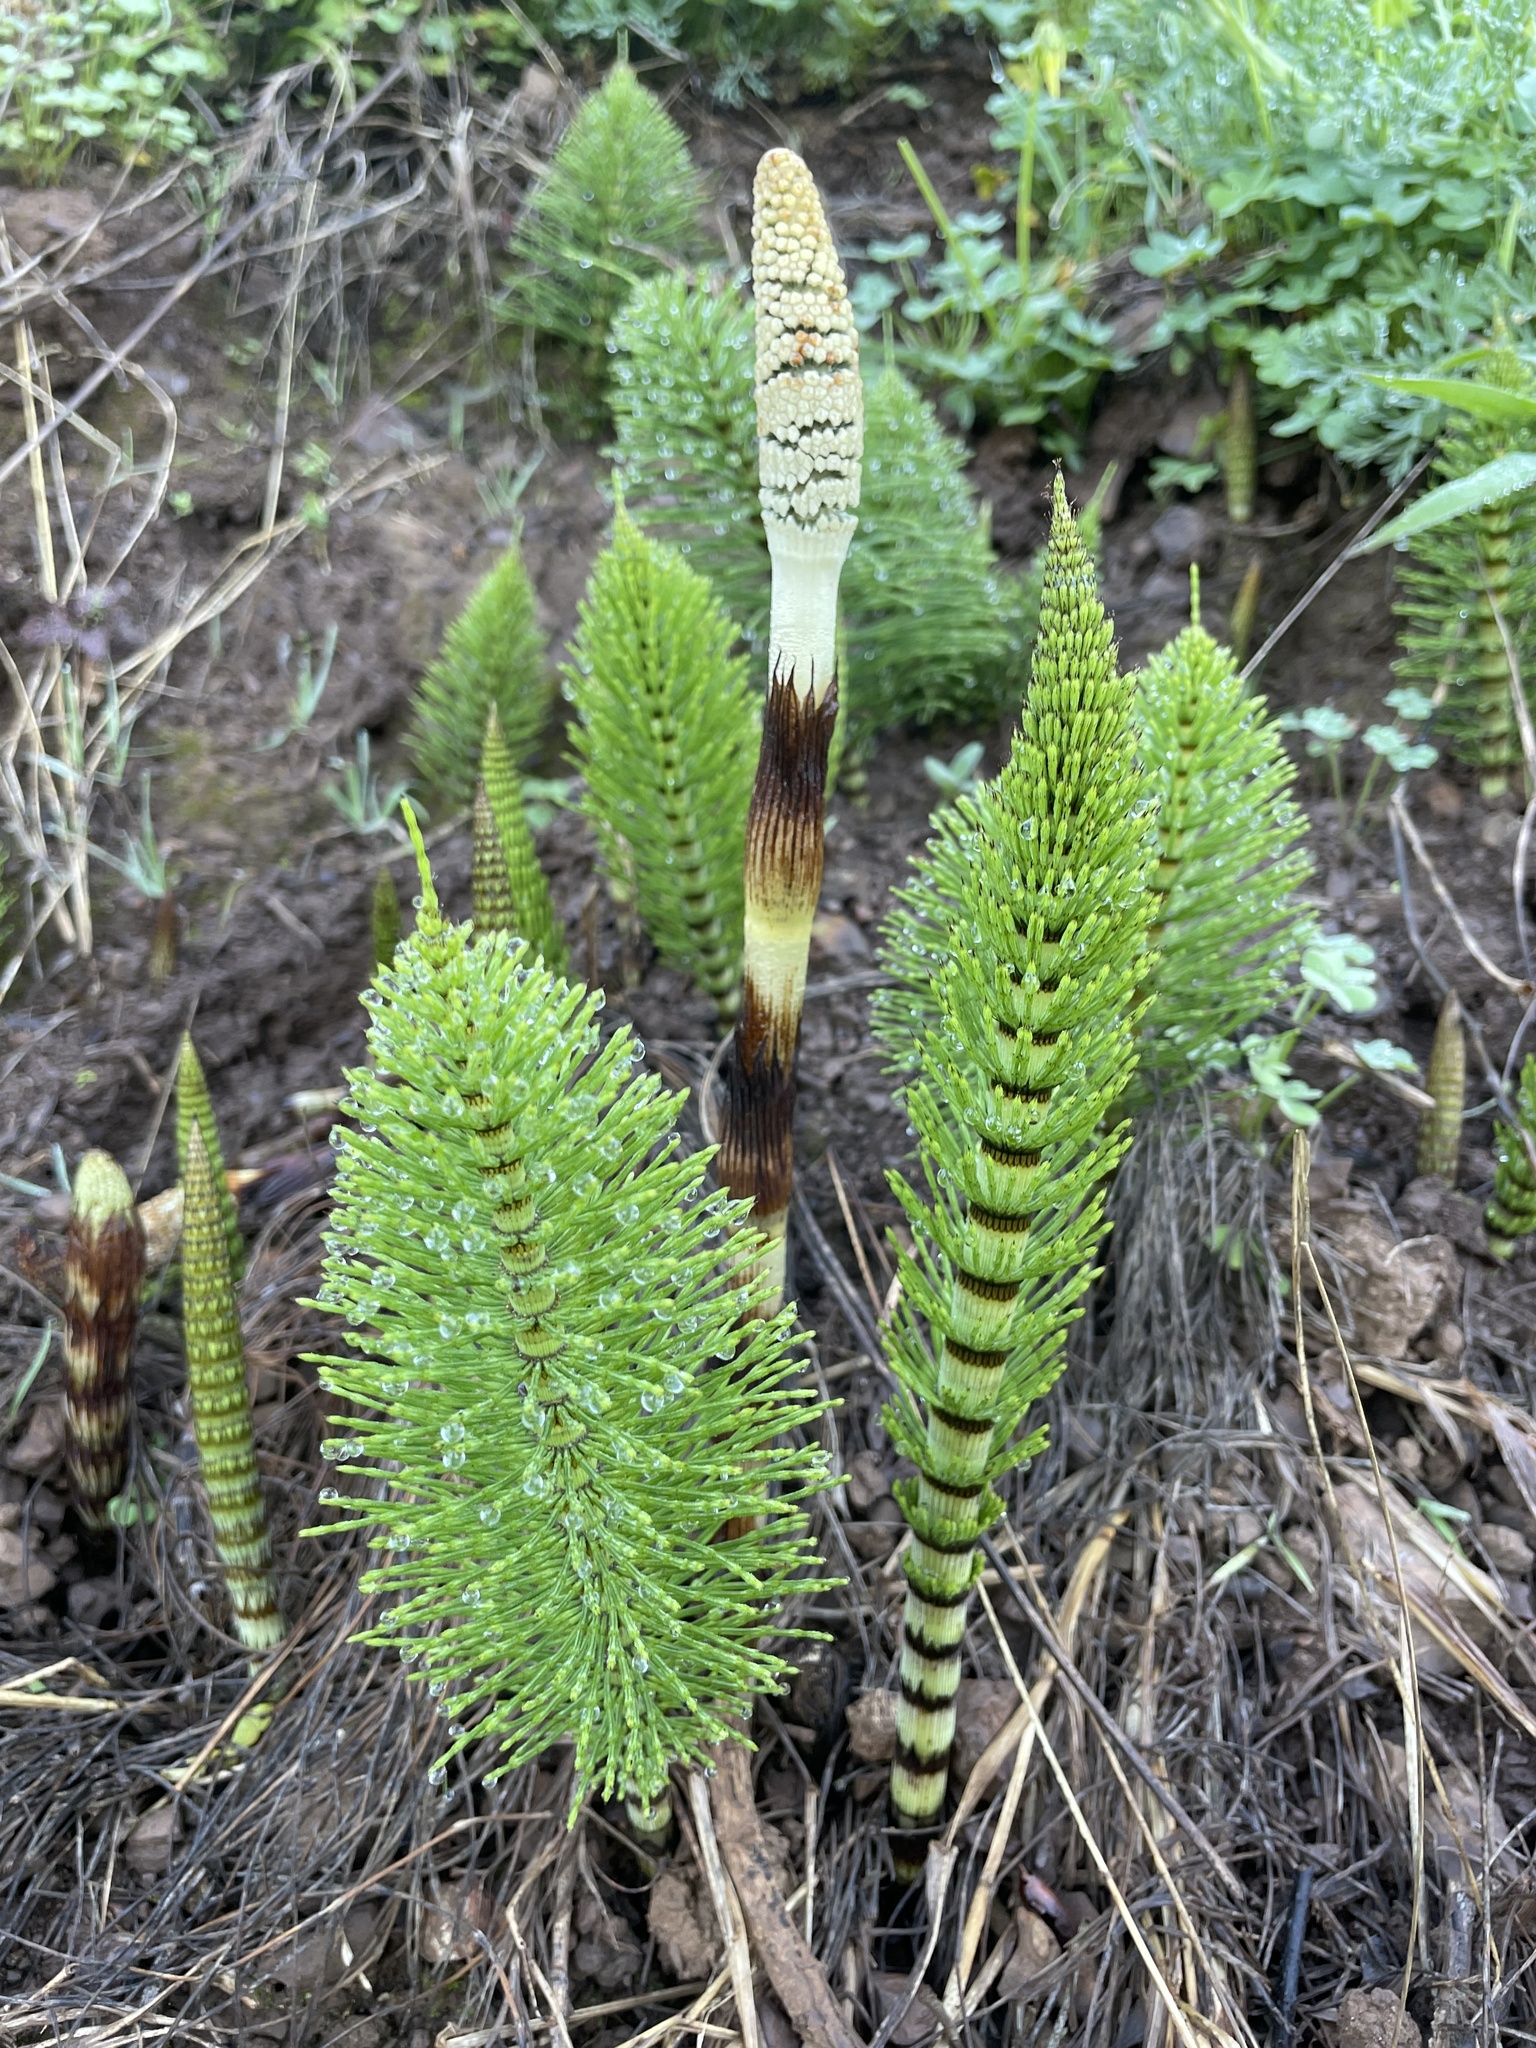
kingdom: Plantae
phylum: Tracheophyta
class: Polypodiopsida
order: Equisetales
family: Equisetaceae
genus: Equisetum
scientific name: Equisetum telmateia
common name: Great horsetail
